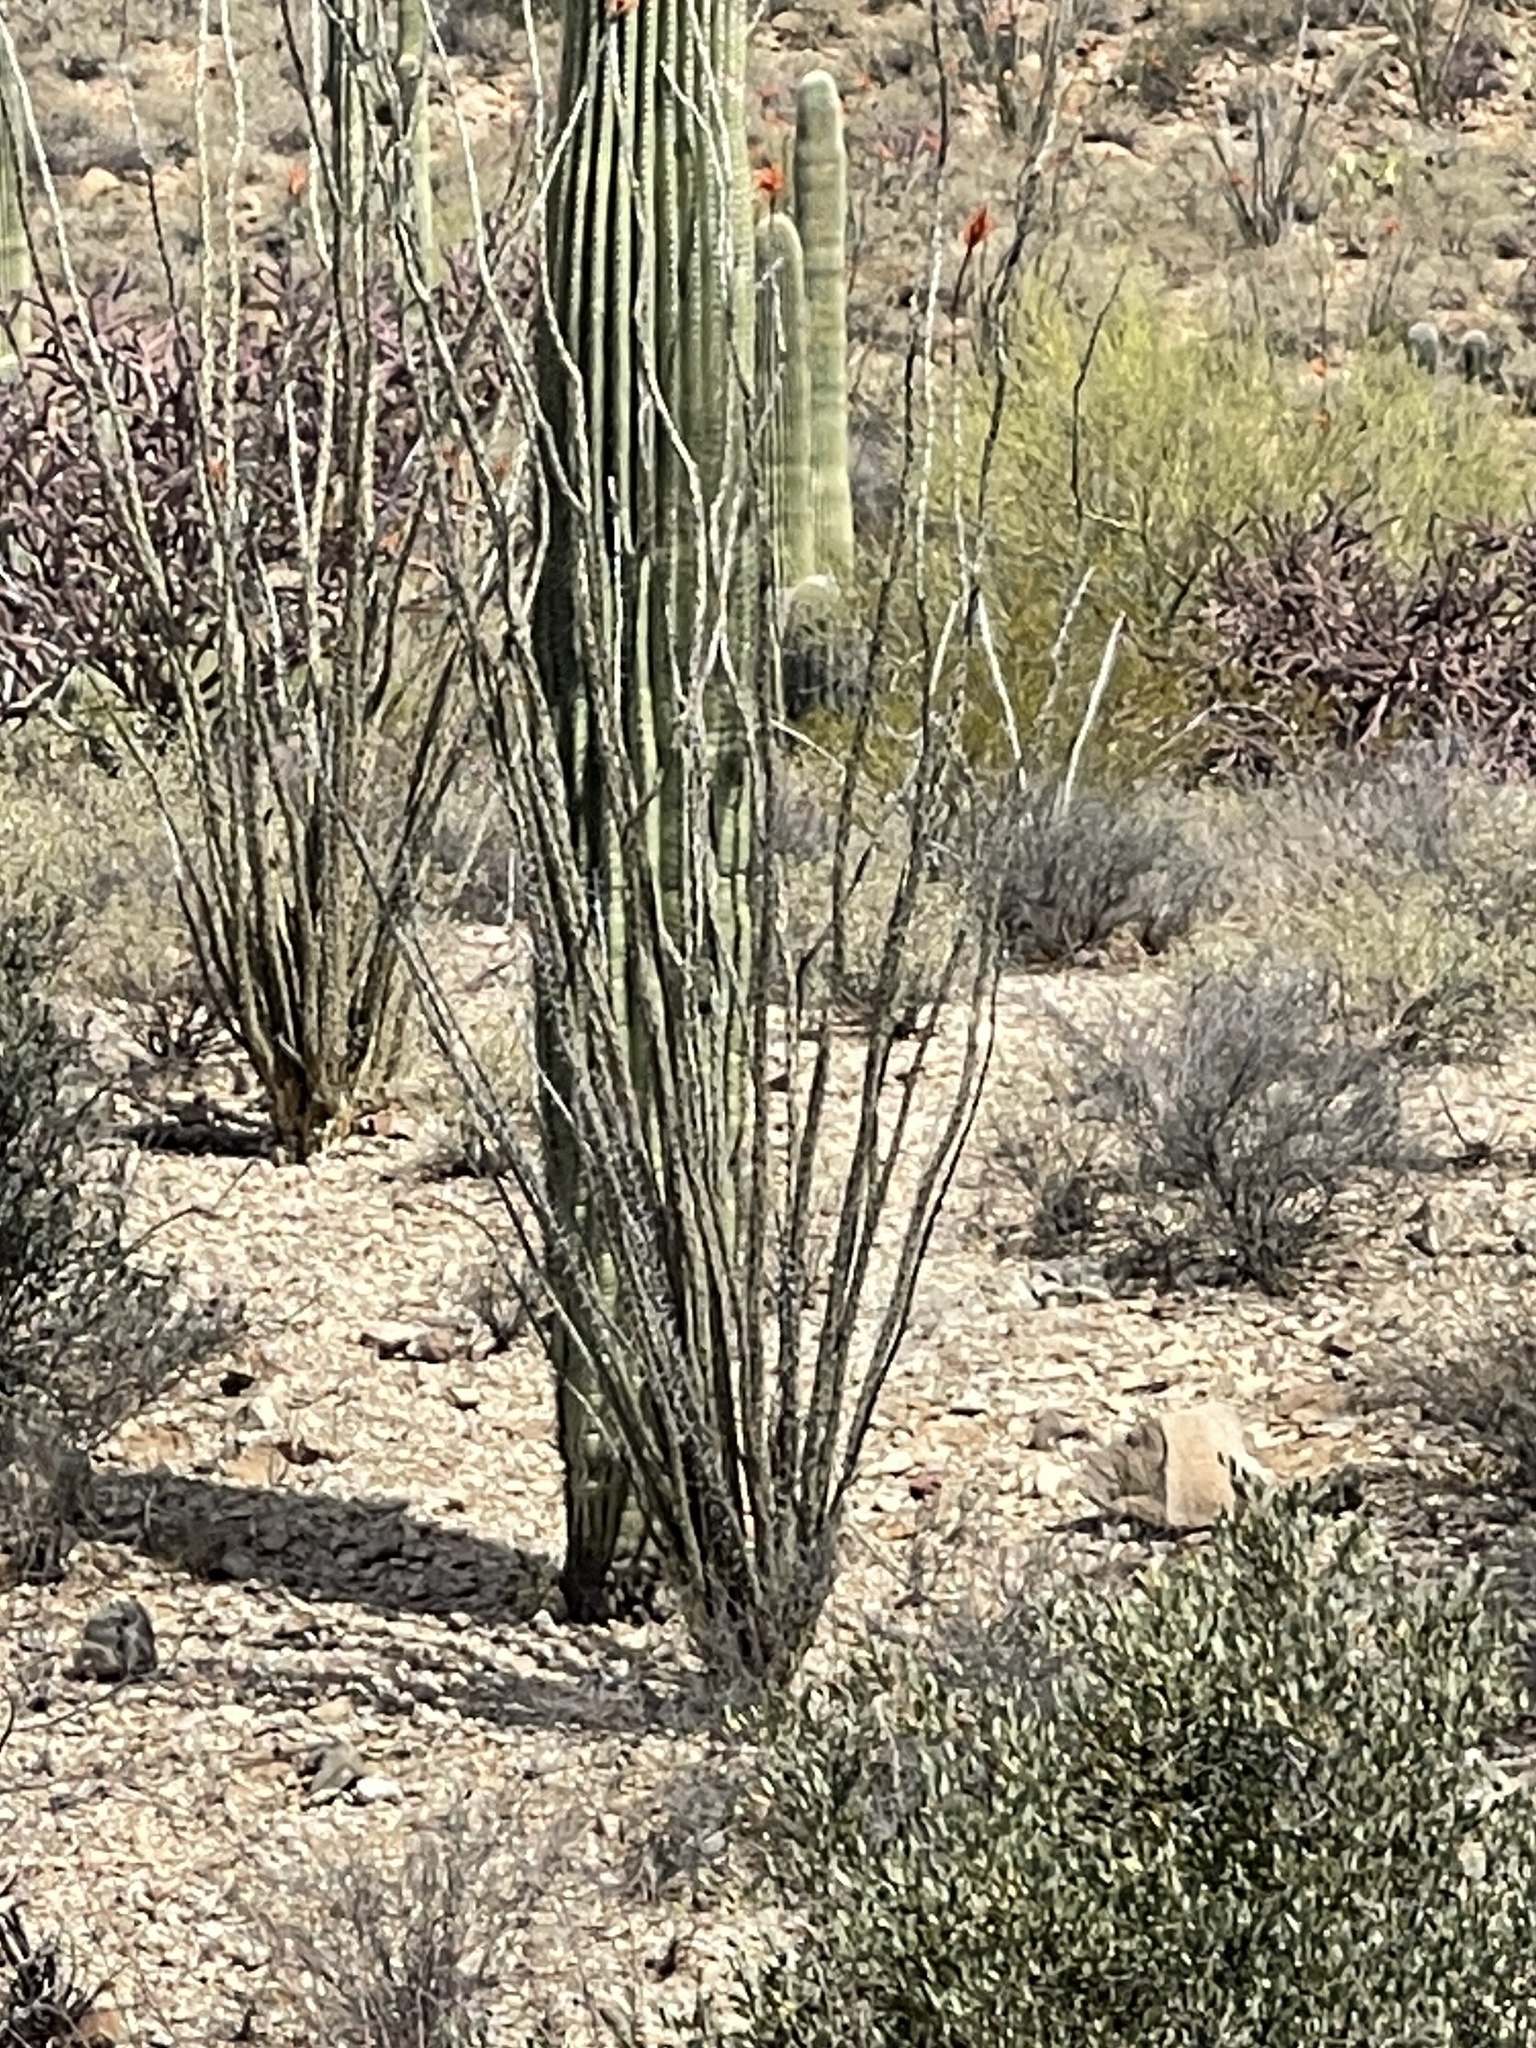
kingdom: Plantae
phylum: Tracheophyta
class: Magnoliopsida
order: Ericales
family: Fouquieriaceae
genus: Fouquieria
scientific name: Fouquieria splendens
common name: Vine-cactus
